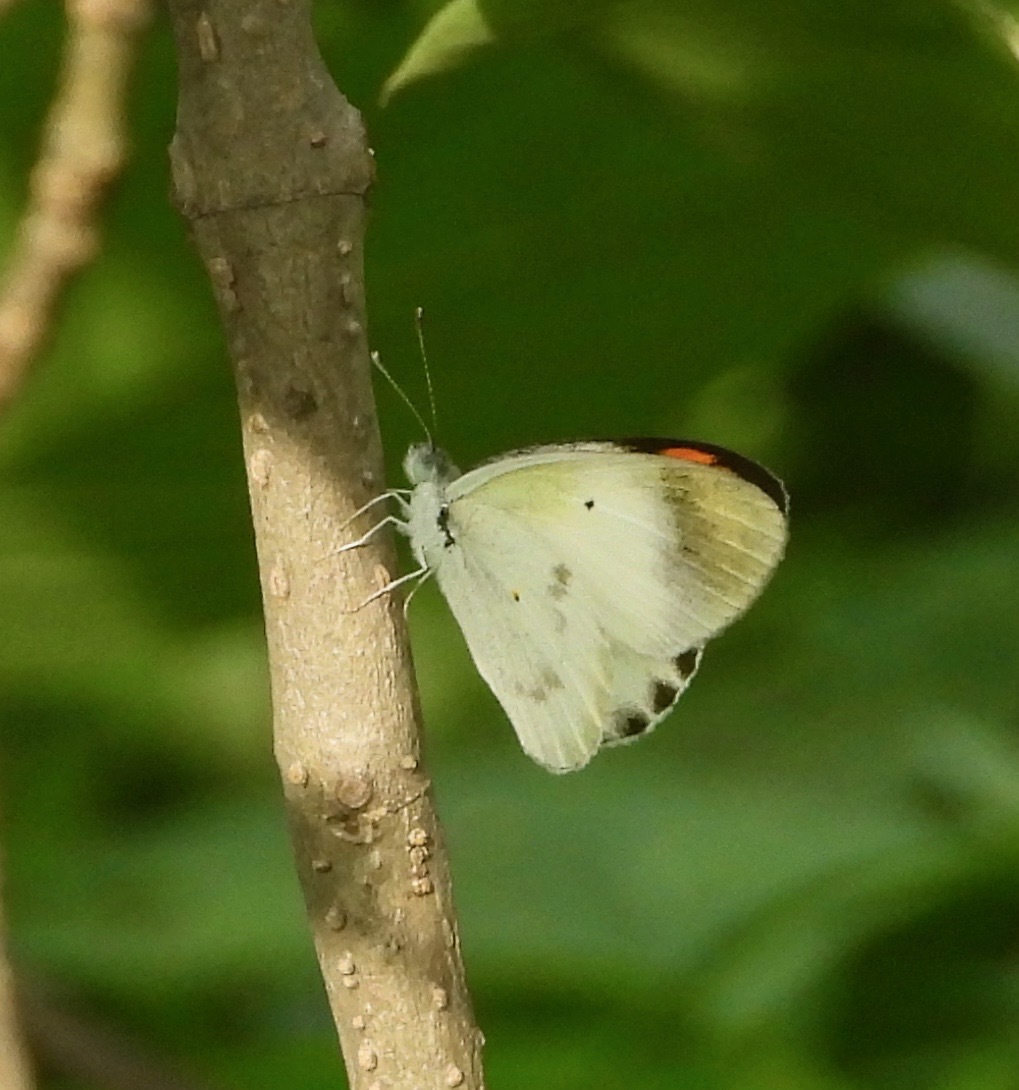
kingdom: Animalia
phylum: Arthropoda
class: Insecta
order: Lepidoptera
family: Pieridae
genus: Colotis
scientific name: Colotis etrida
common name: Little orange tip
